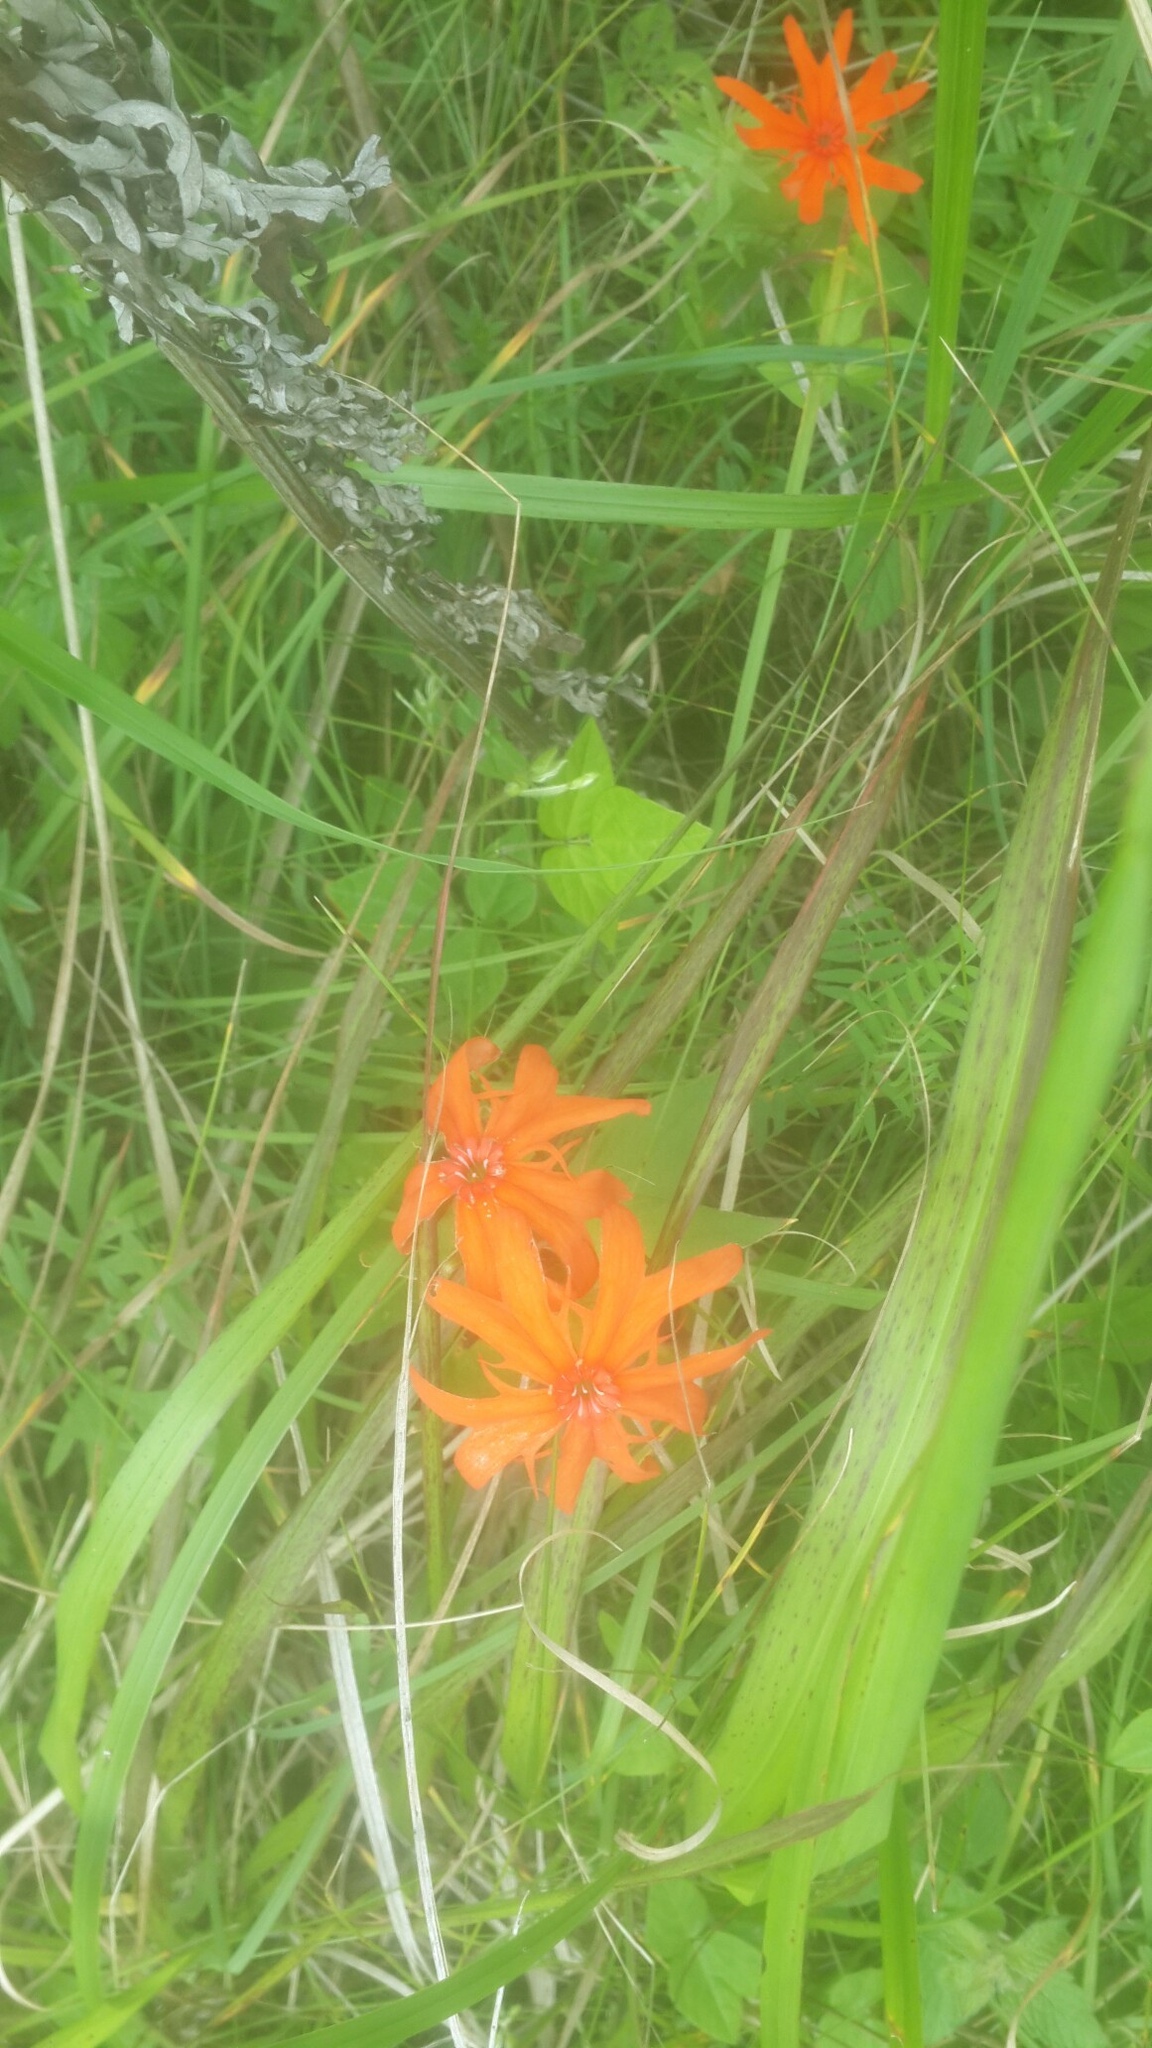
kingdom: Plantae
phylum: Tracheophyta
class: Magnoliopsida
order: Caryophyllales
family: Caryophyllaceae
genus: Silene
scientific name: Silene banksia
